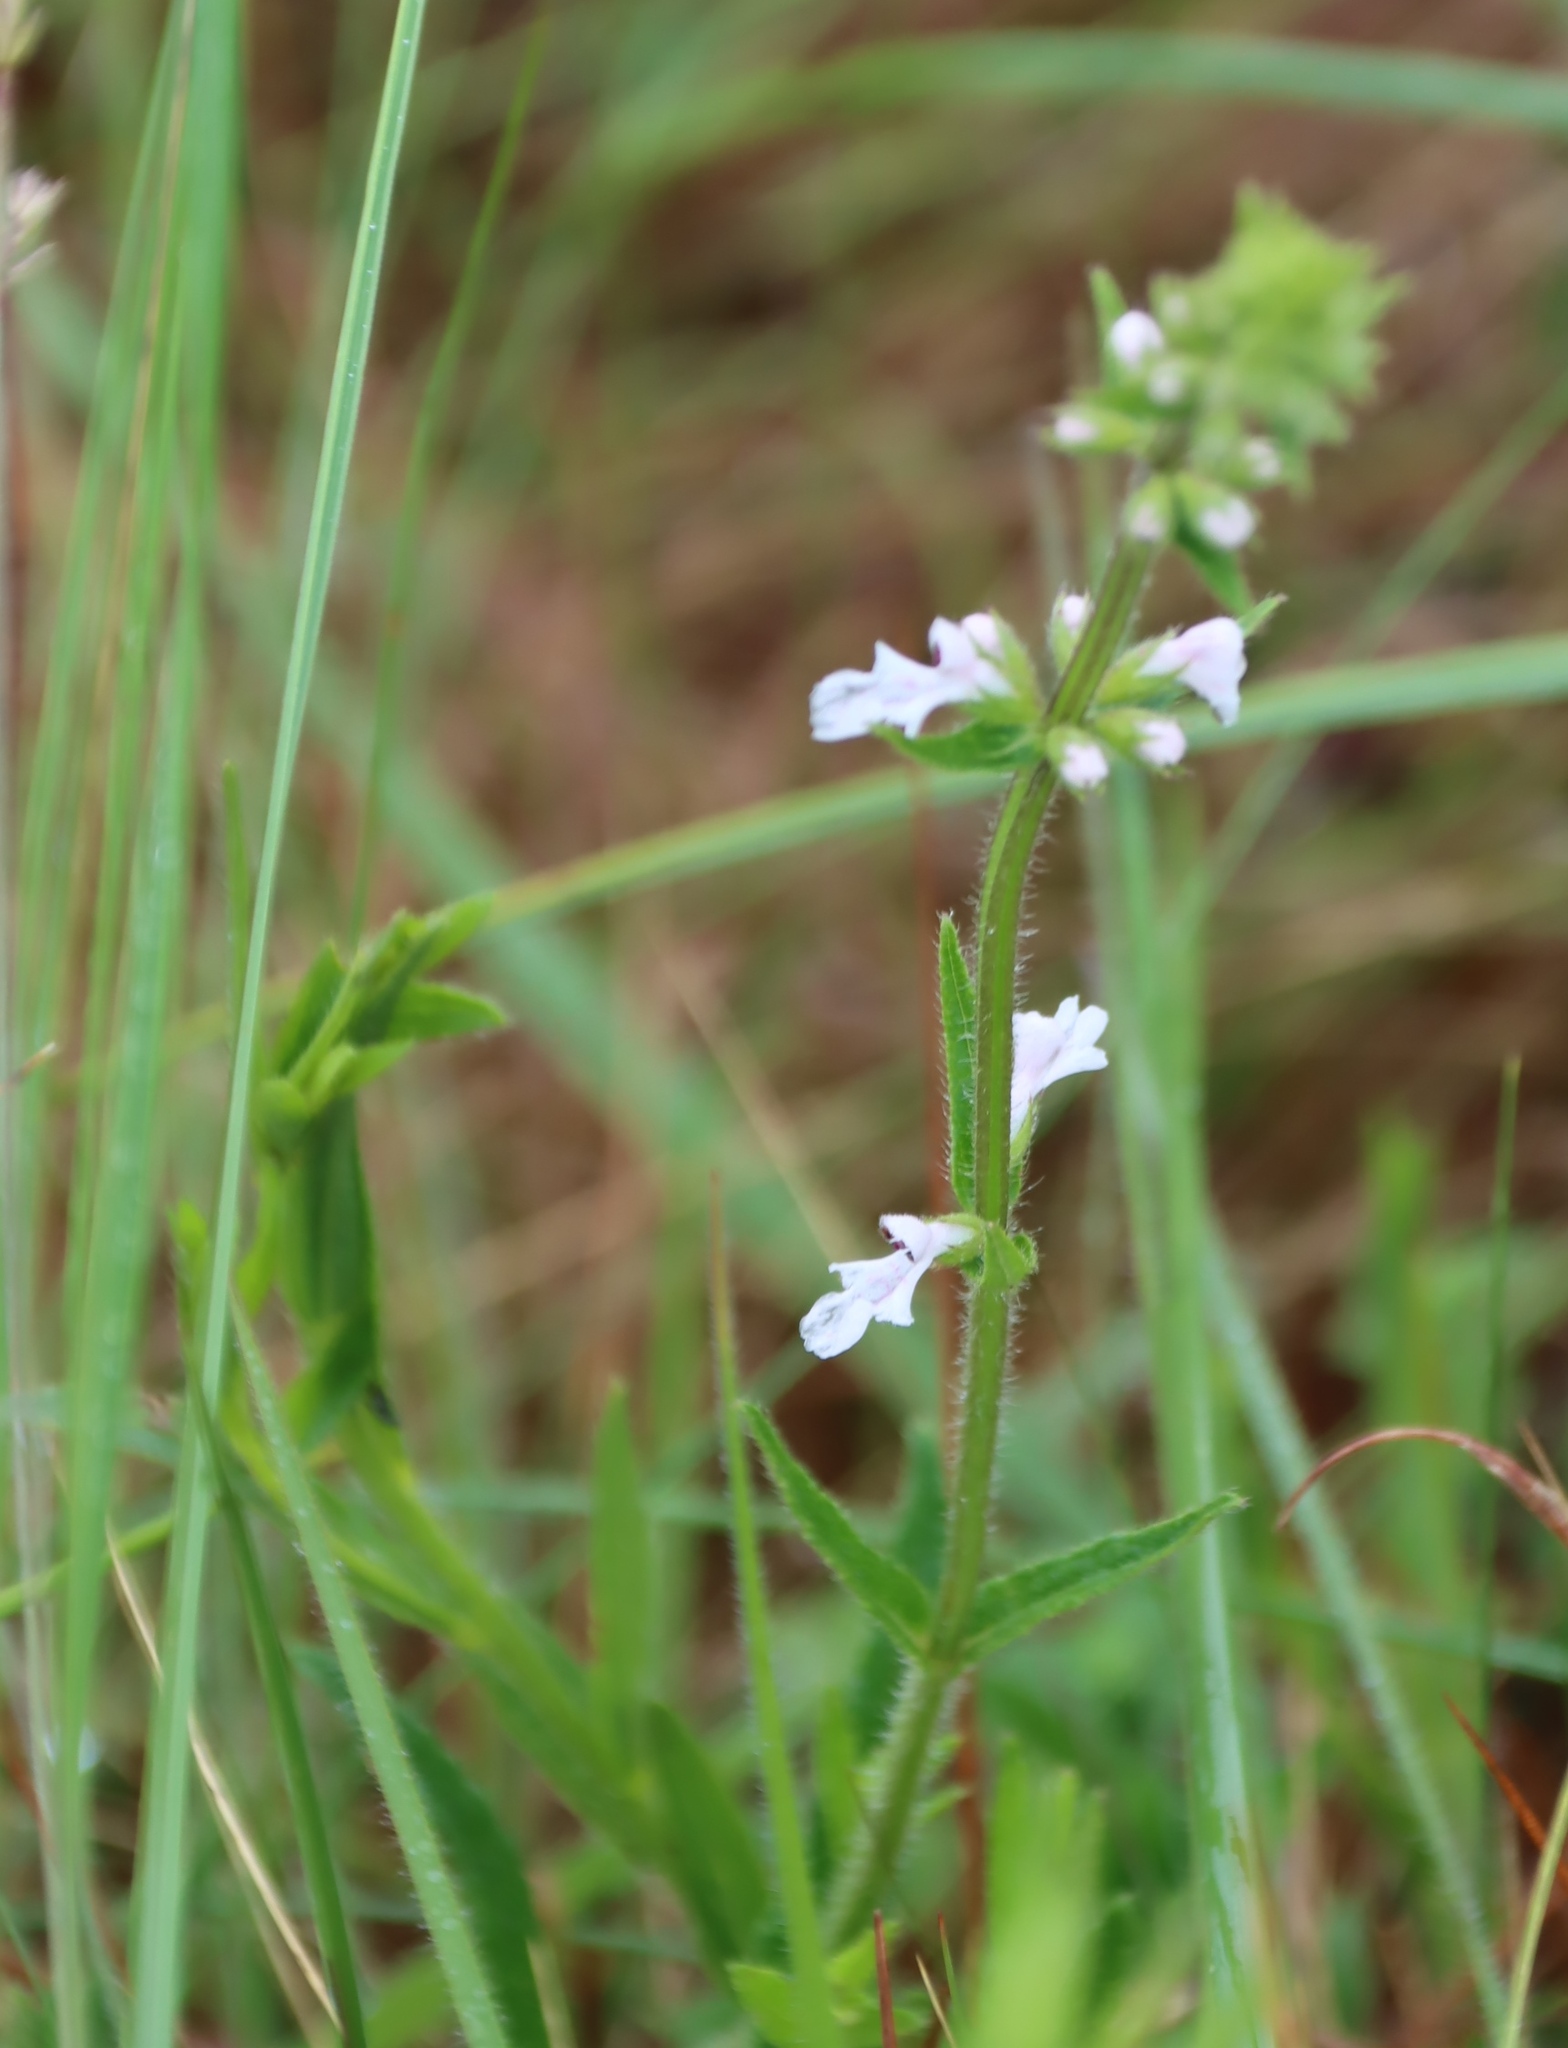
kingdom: Plantae
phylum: Tracheophyta
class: Magnoliopsida
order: Lamiales
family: Lamiaceae
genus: Stachys
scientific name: Stachys nigricans
